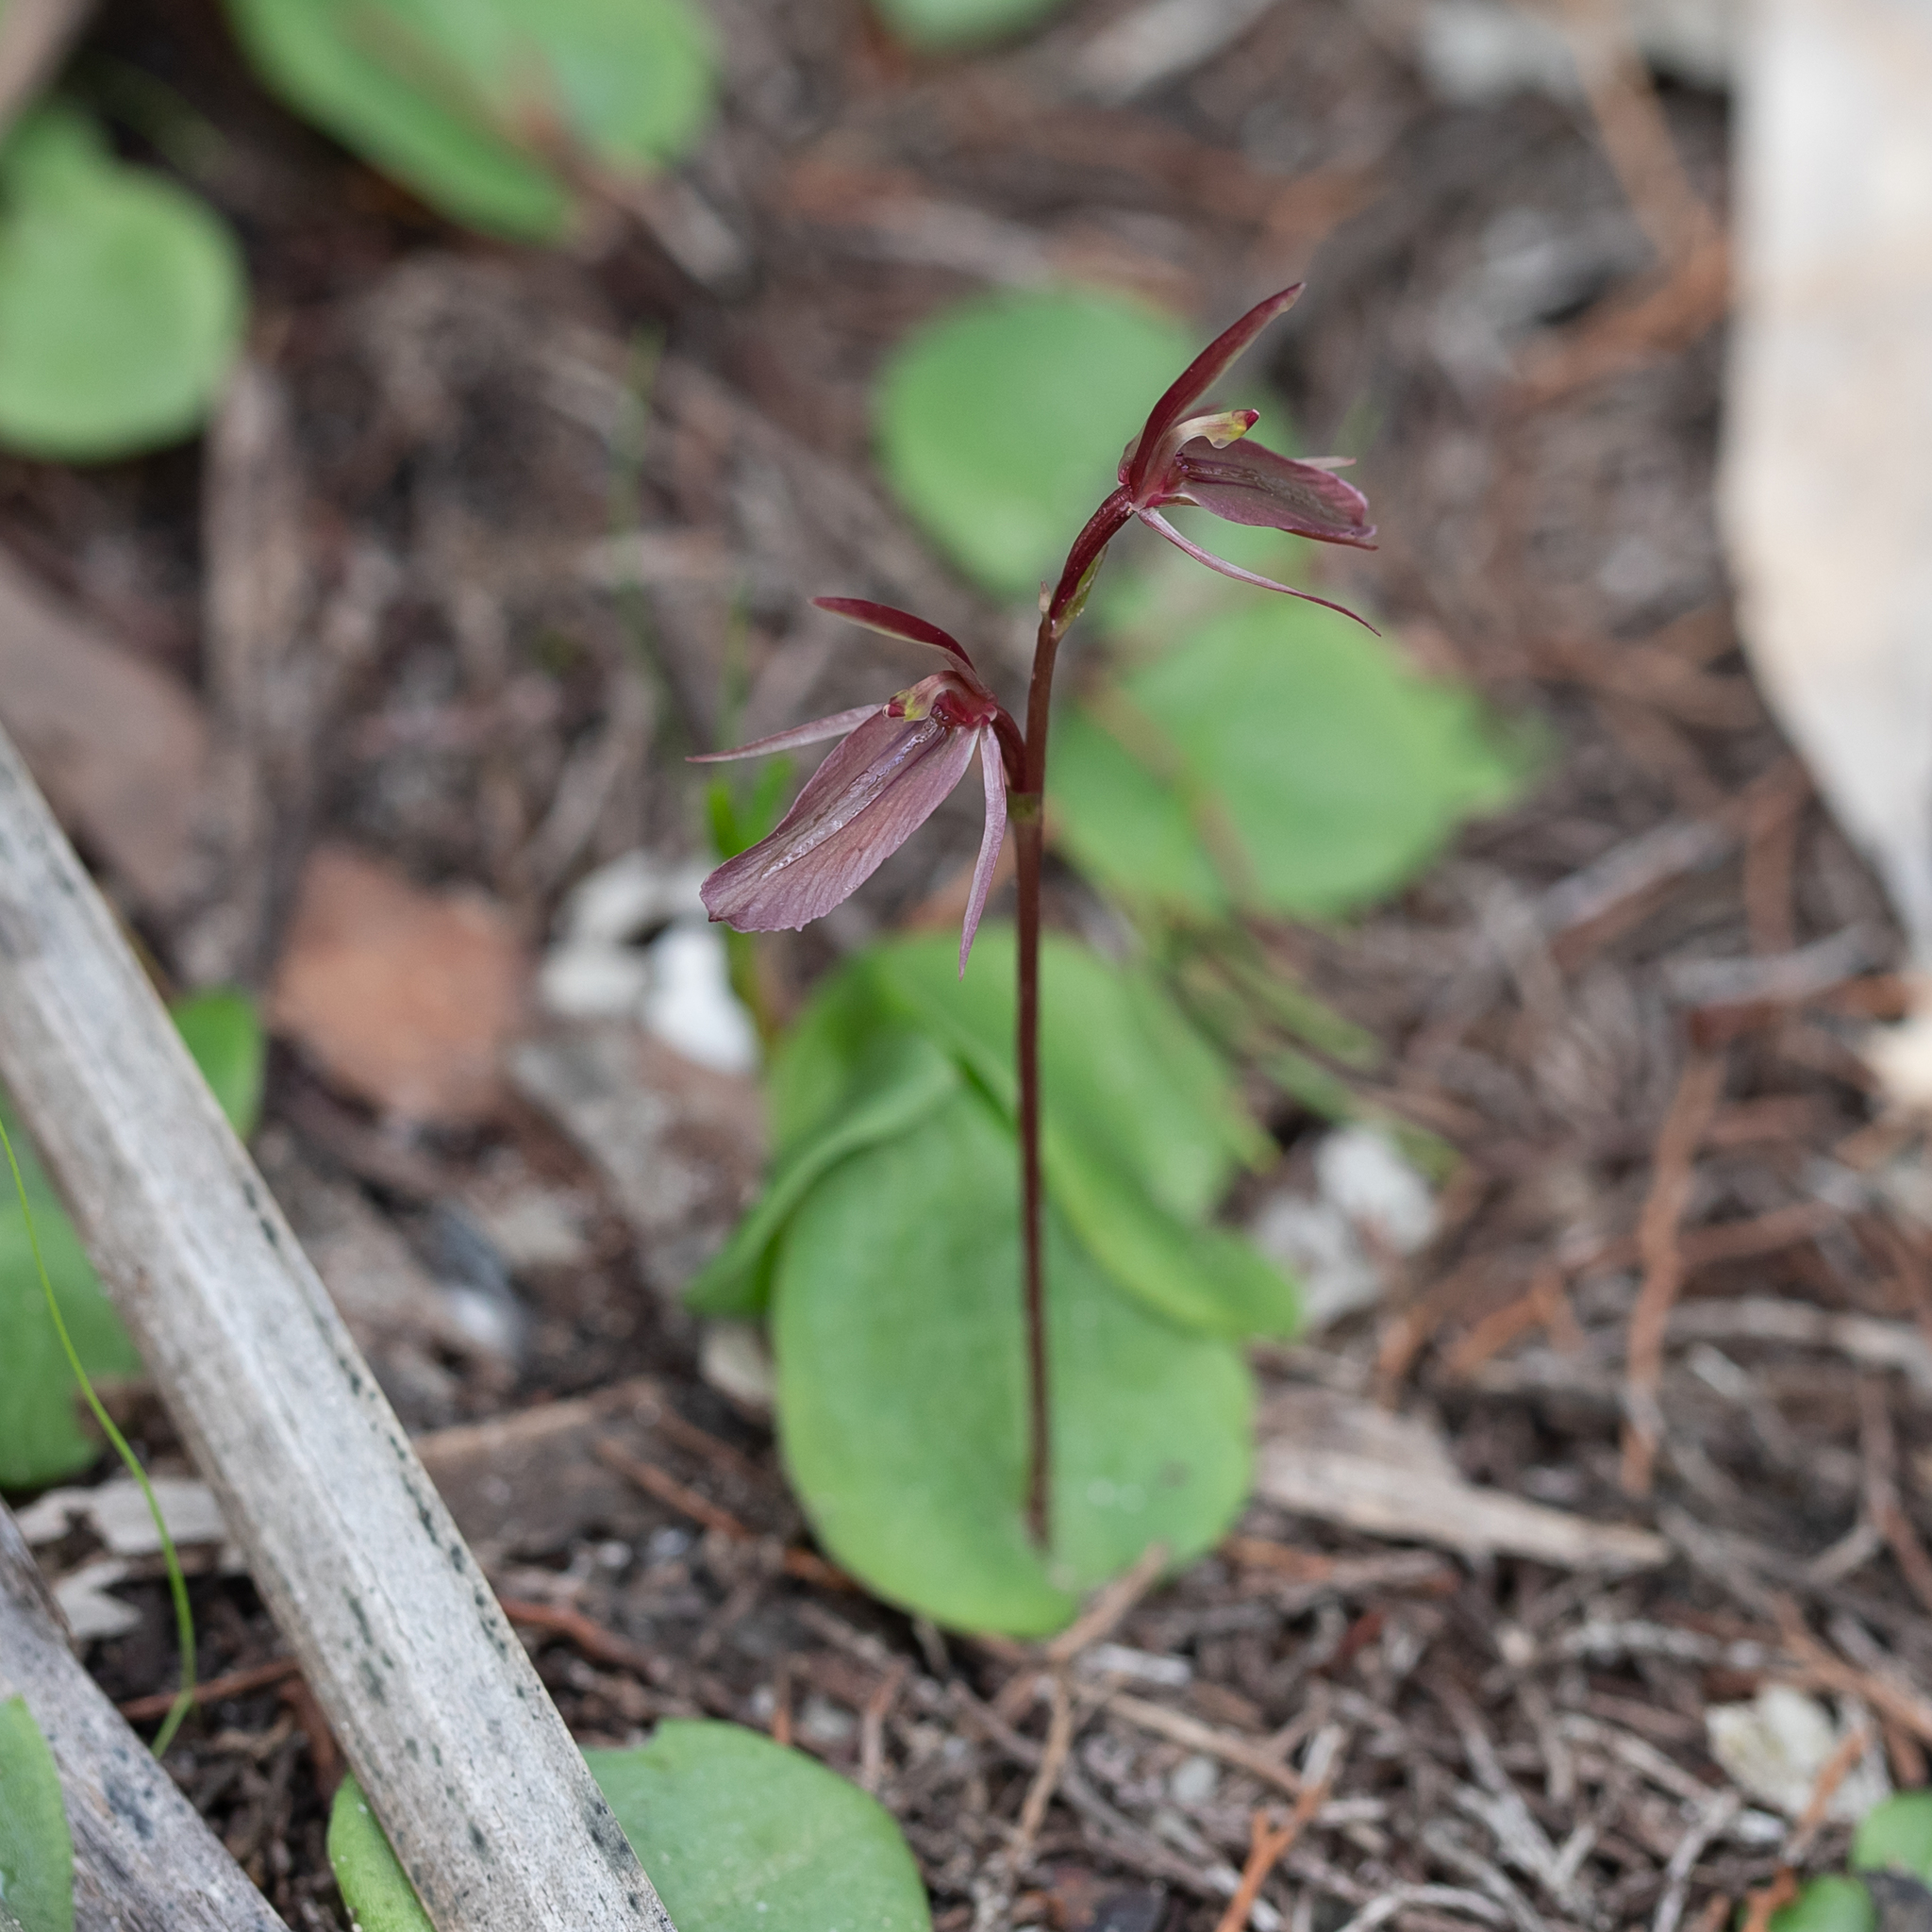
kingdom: Plantae
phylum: Tracheophyta
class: Liliopsida
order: Asparagales
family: Orchidaceae
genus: Cyrtostylis
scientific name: Cyrtostylis robusta
